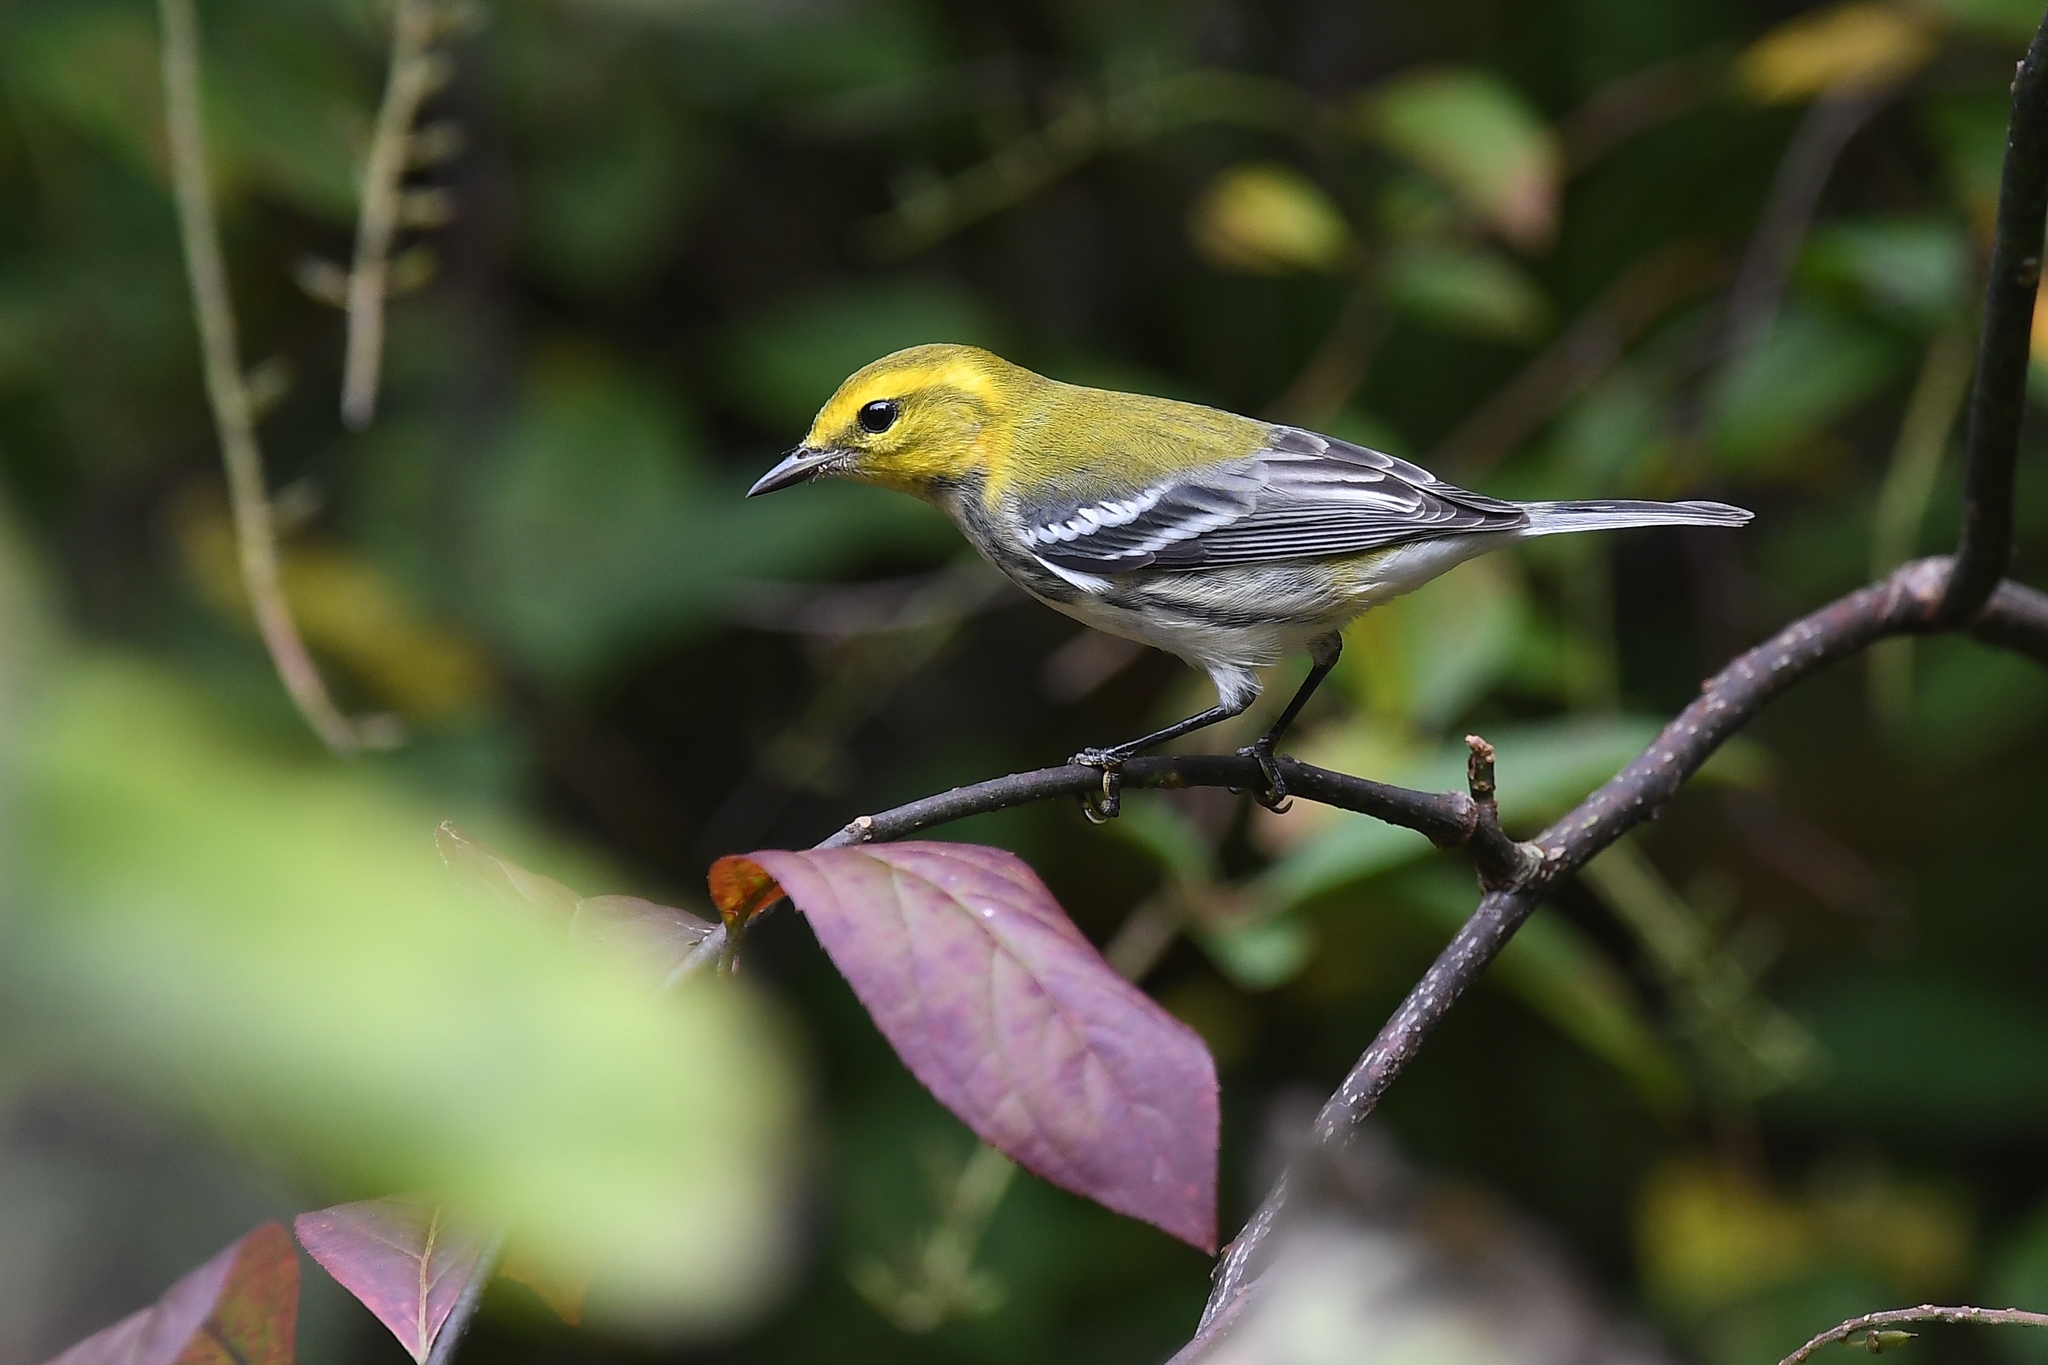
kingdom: Animalia
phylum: Chordata
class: Aves
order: Passeriformes
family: Parulidae
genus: Setophaga
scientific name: Setophaga virens
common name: Black-throated green warbler
